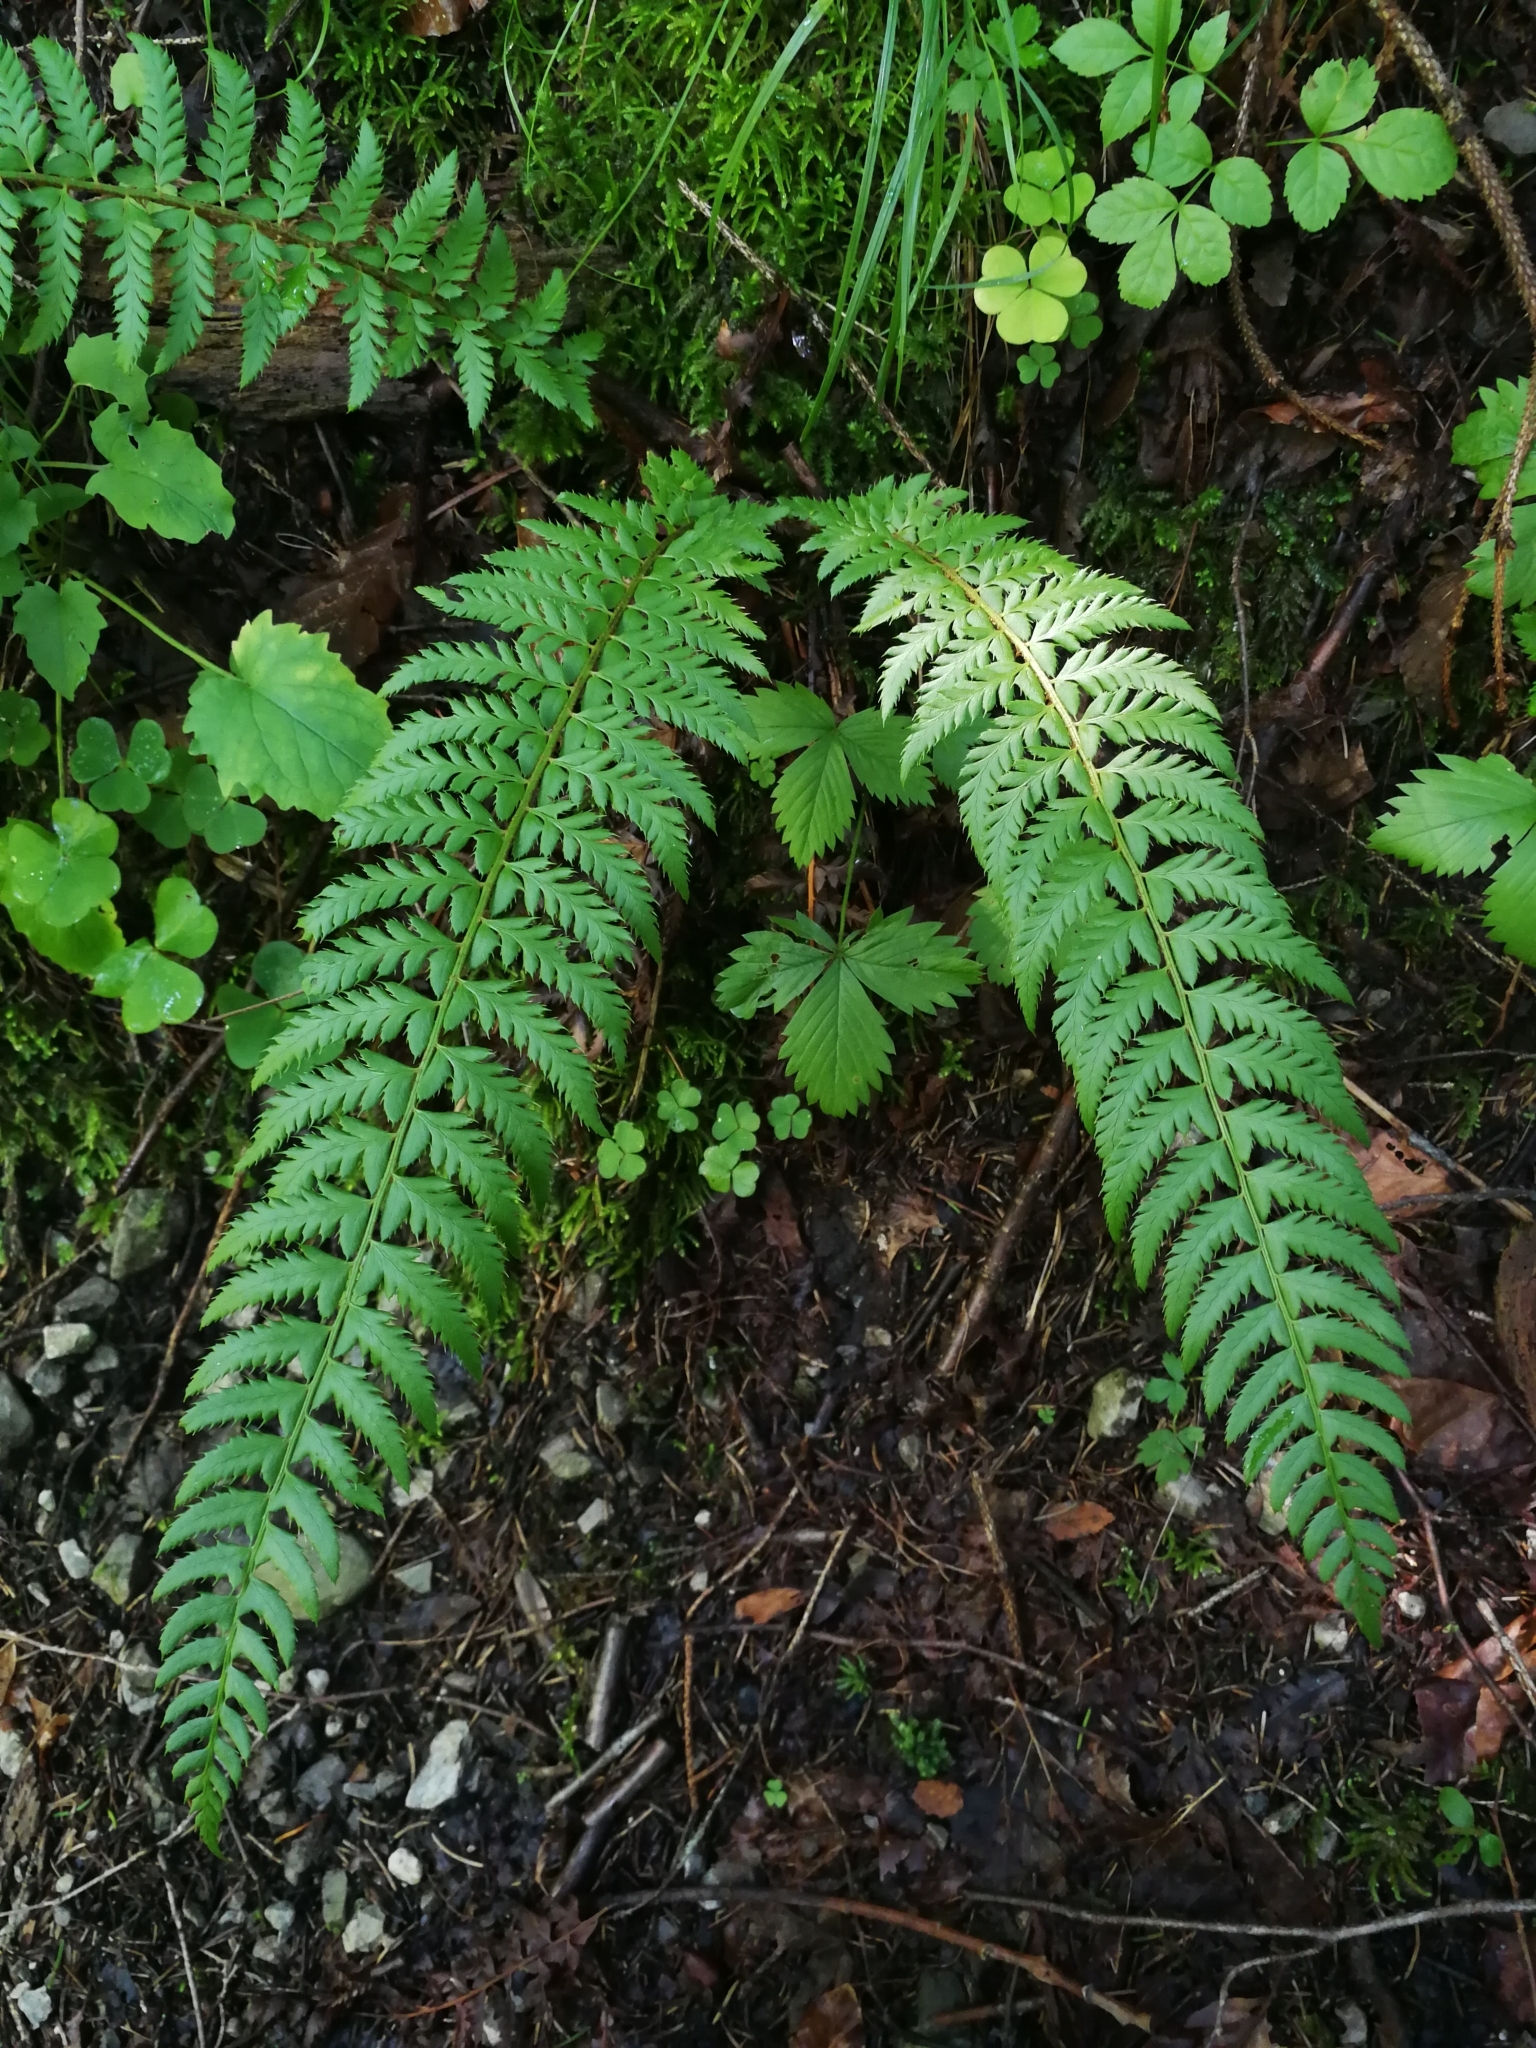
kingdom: Plantae
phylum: Tracheophyta
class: Polypodiopsida
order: Polypodiales
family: Dryopteridaceae
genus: Polystichum
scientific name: Polystichum aculeatum
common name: Hard shield-fern
